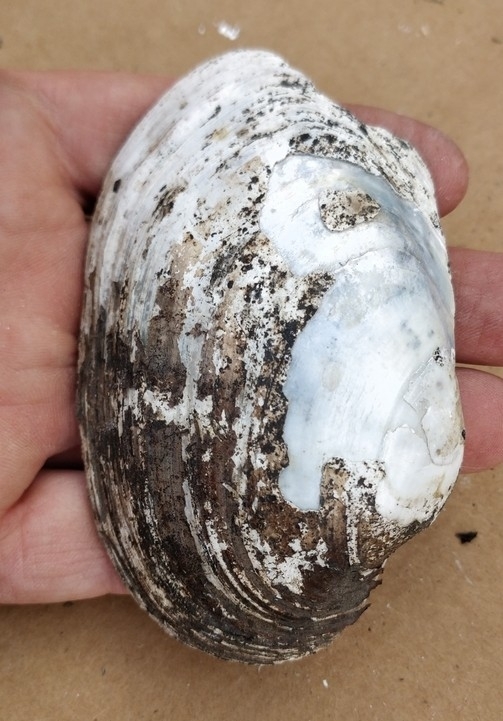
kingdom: Animalia
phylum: Mollusca
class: Bivalvia
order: Unionida
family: Unionidae
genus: Lampsilis
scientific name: Lampsilis cardium
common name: Plain pocketbook
